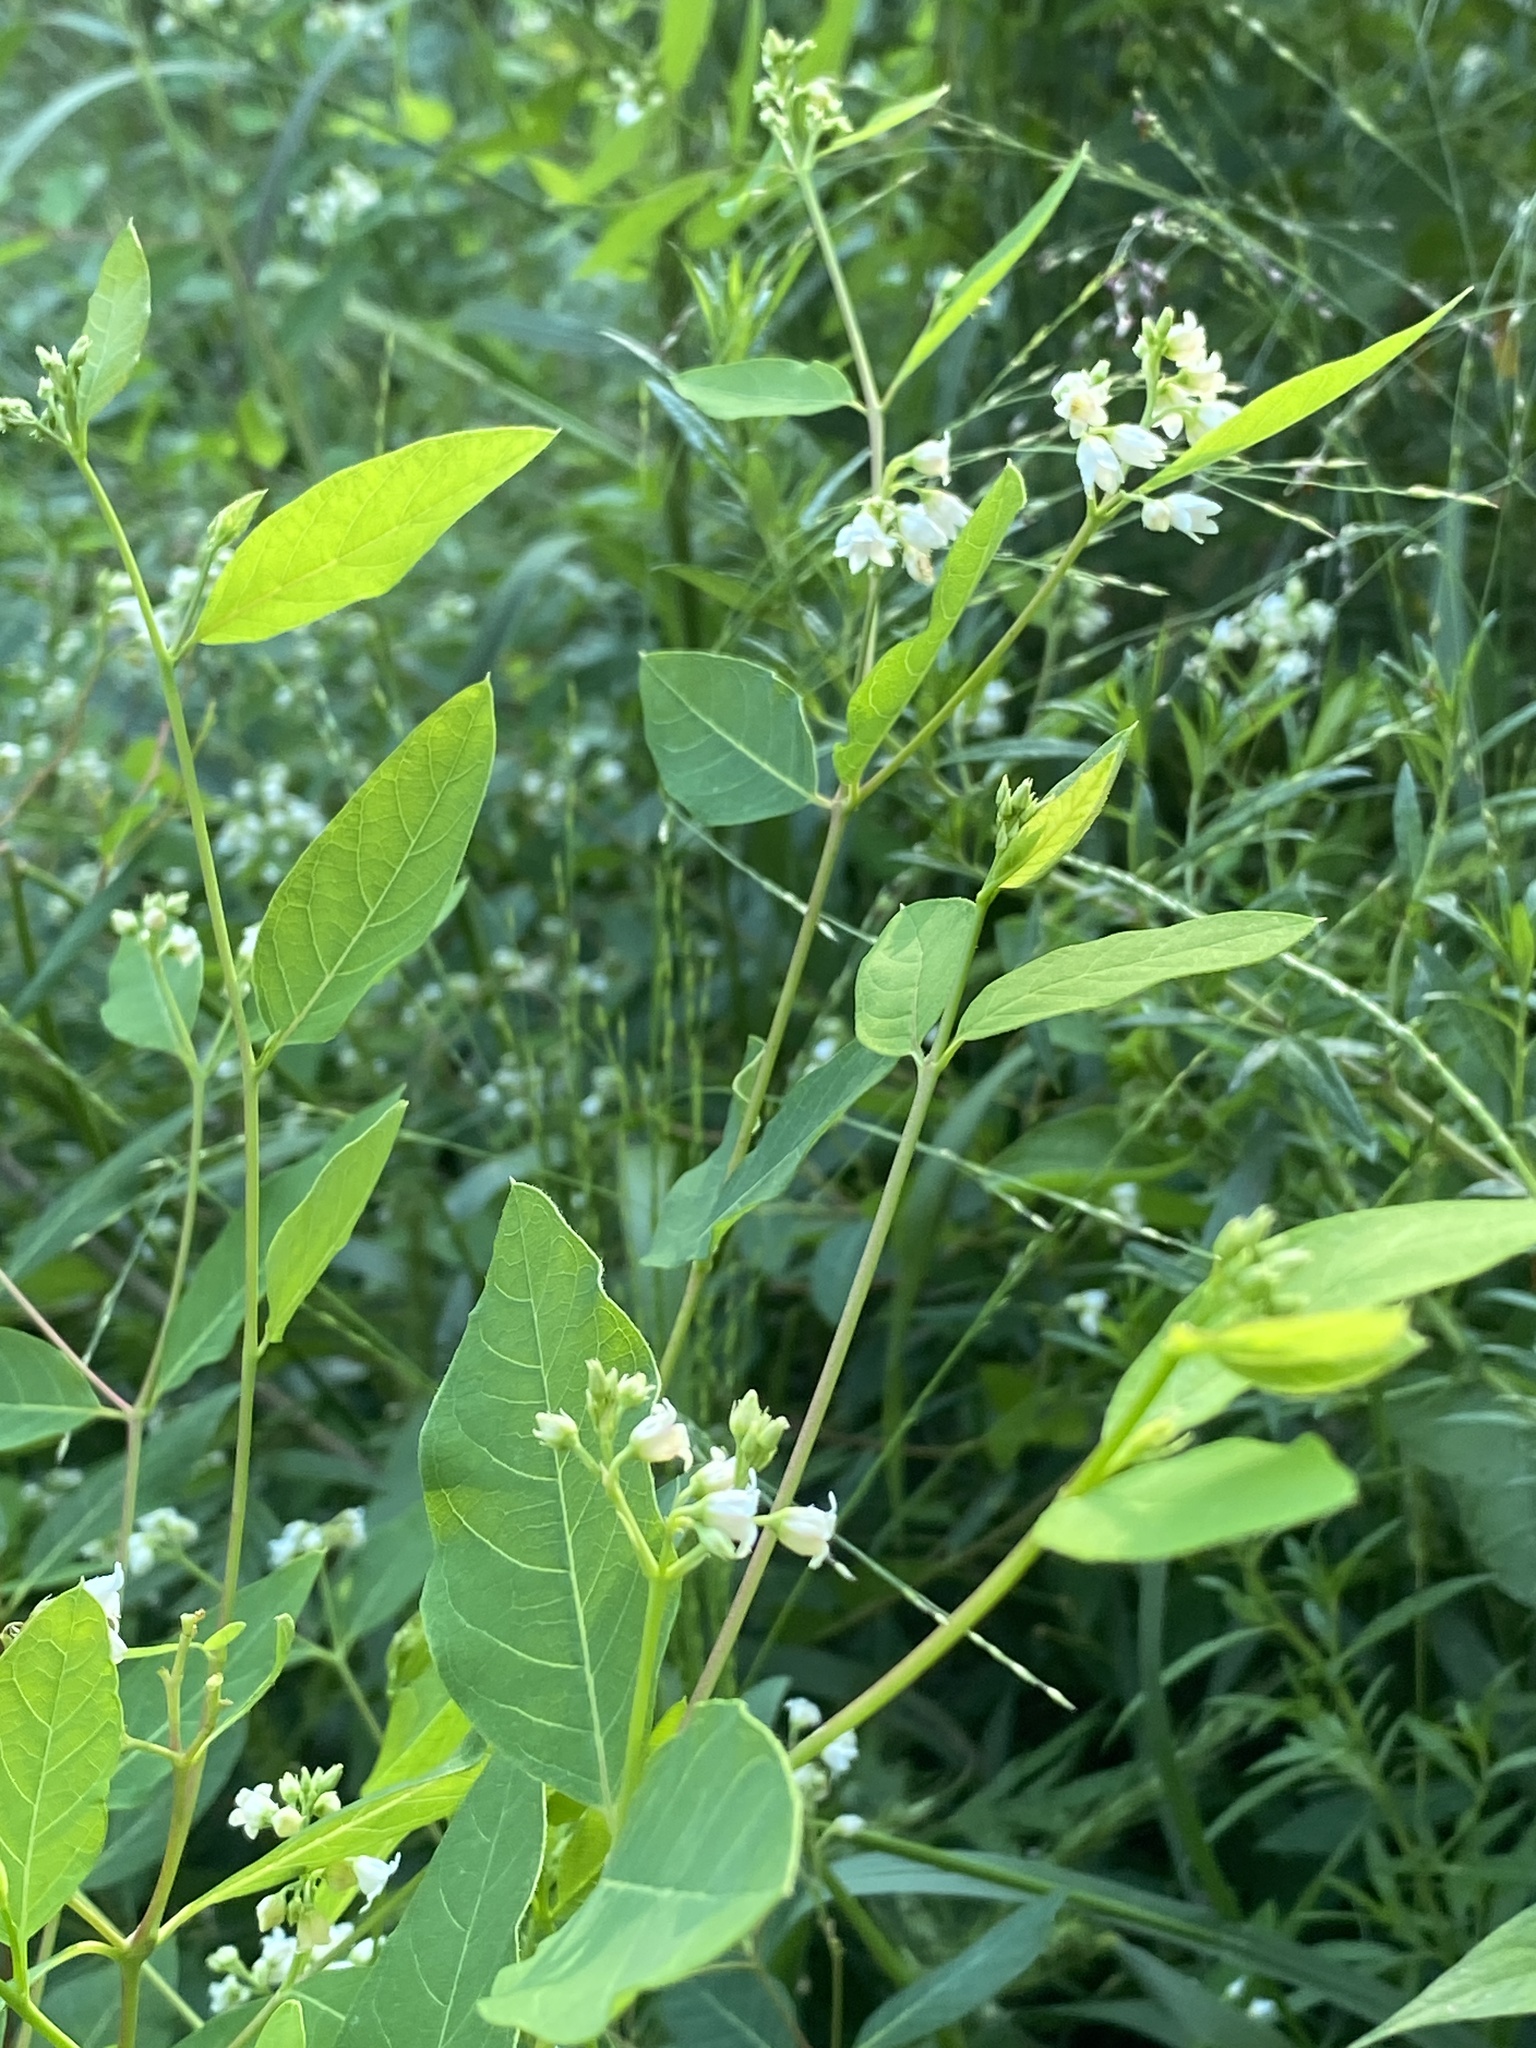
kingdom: Plantae
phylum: Tracheophyta
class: Magnoliopsida
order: Gentianales
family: Apocynaceae
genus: Apocynum
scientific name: Apocynum androsaemifolium
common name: Spreading dogbane
